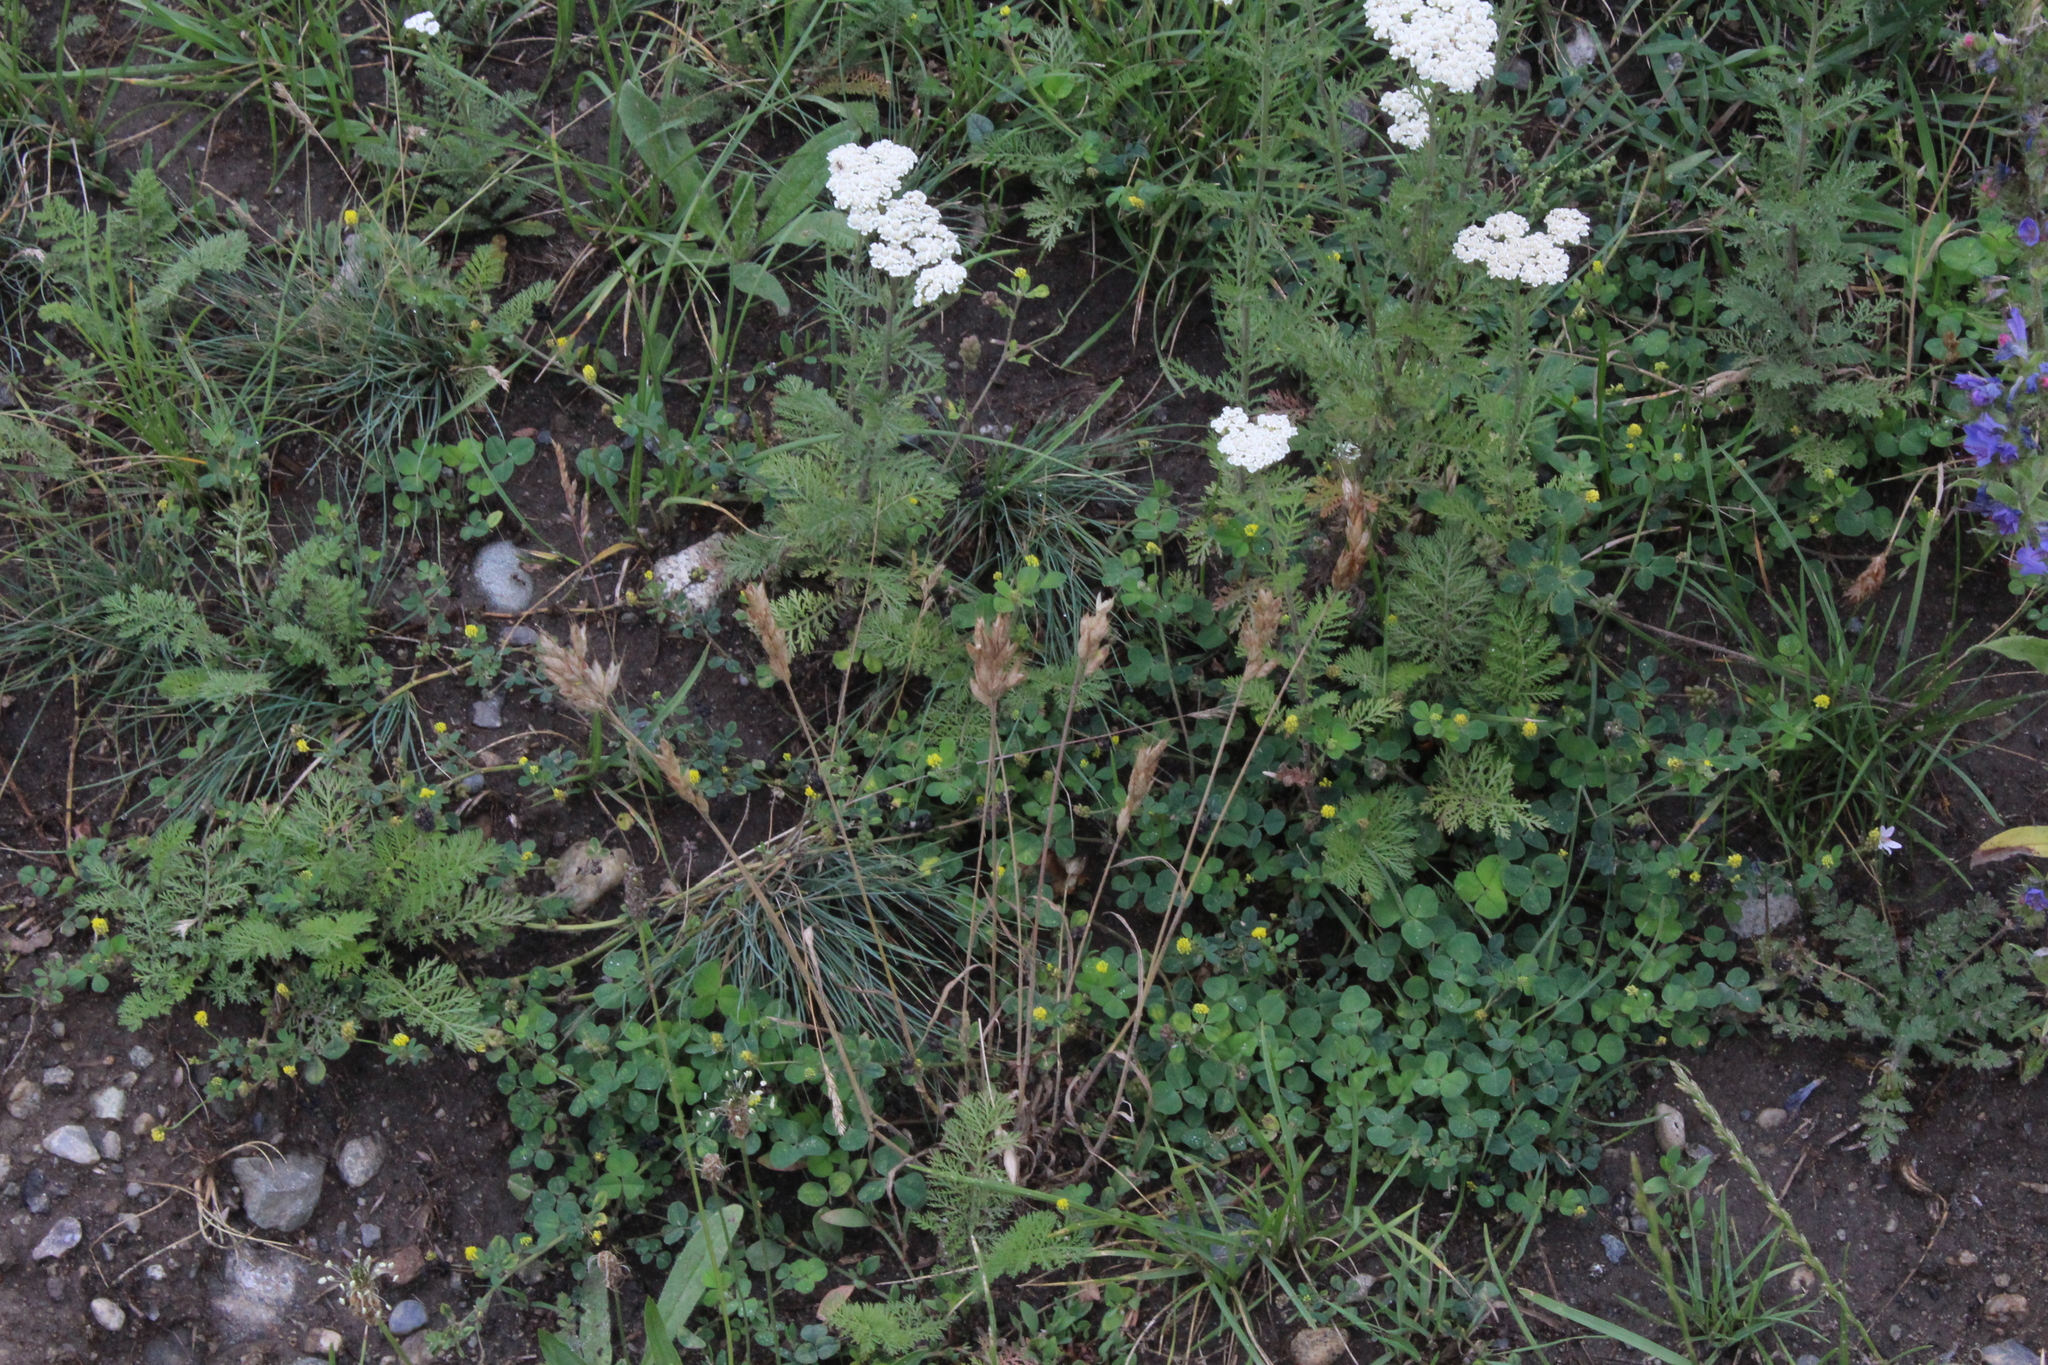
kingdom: Plantae
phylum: Tracheophyta
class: Liliopsida
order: Poales
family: Poaceae
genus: Bromus
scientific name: Bromus hordeaceus
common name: Soft brome
